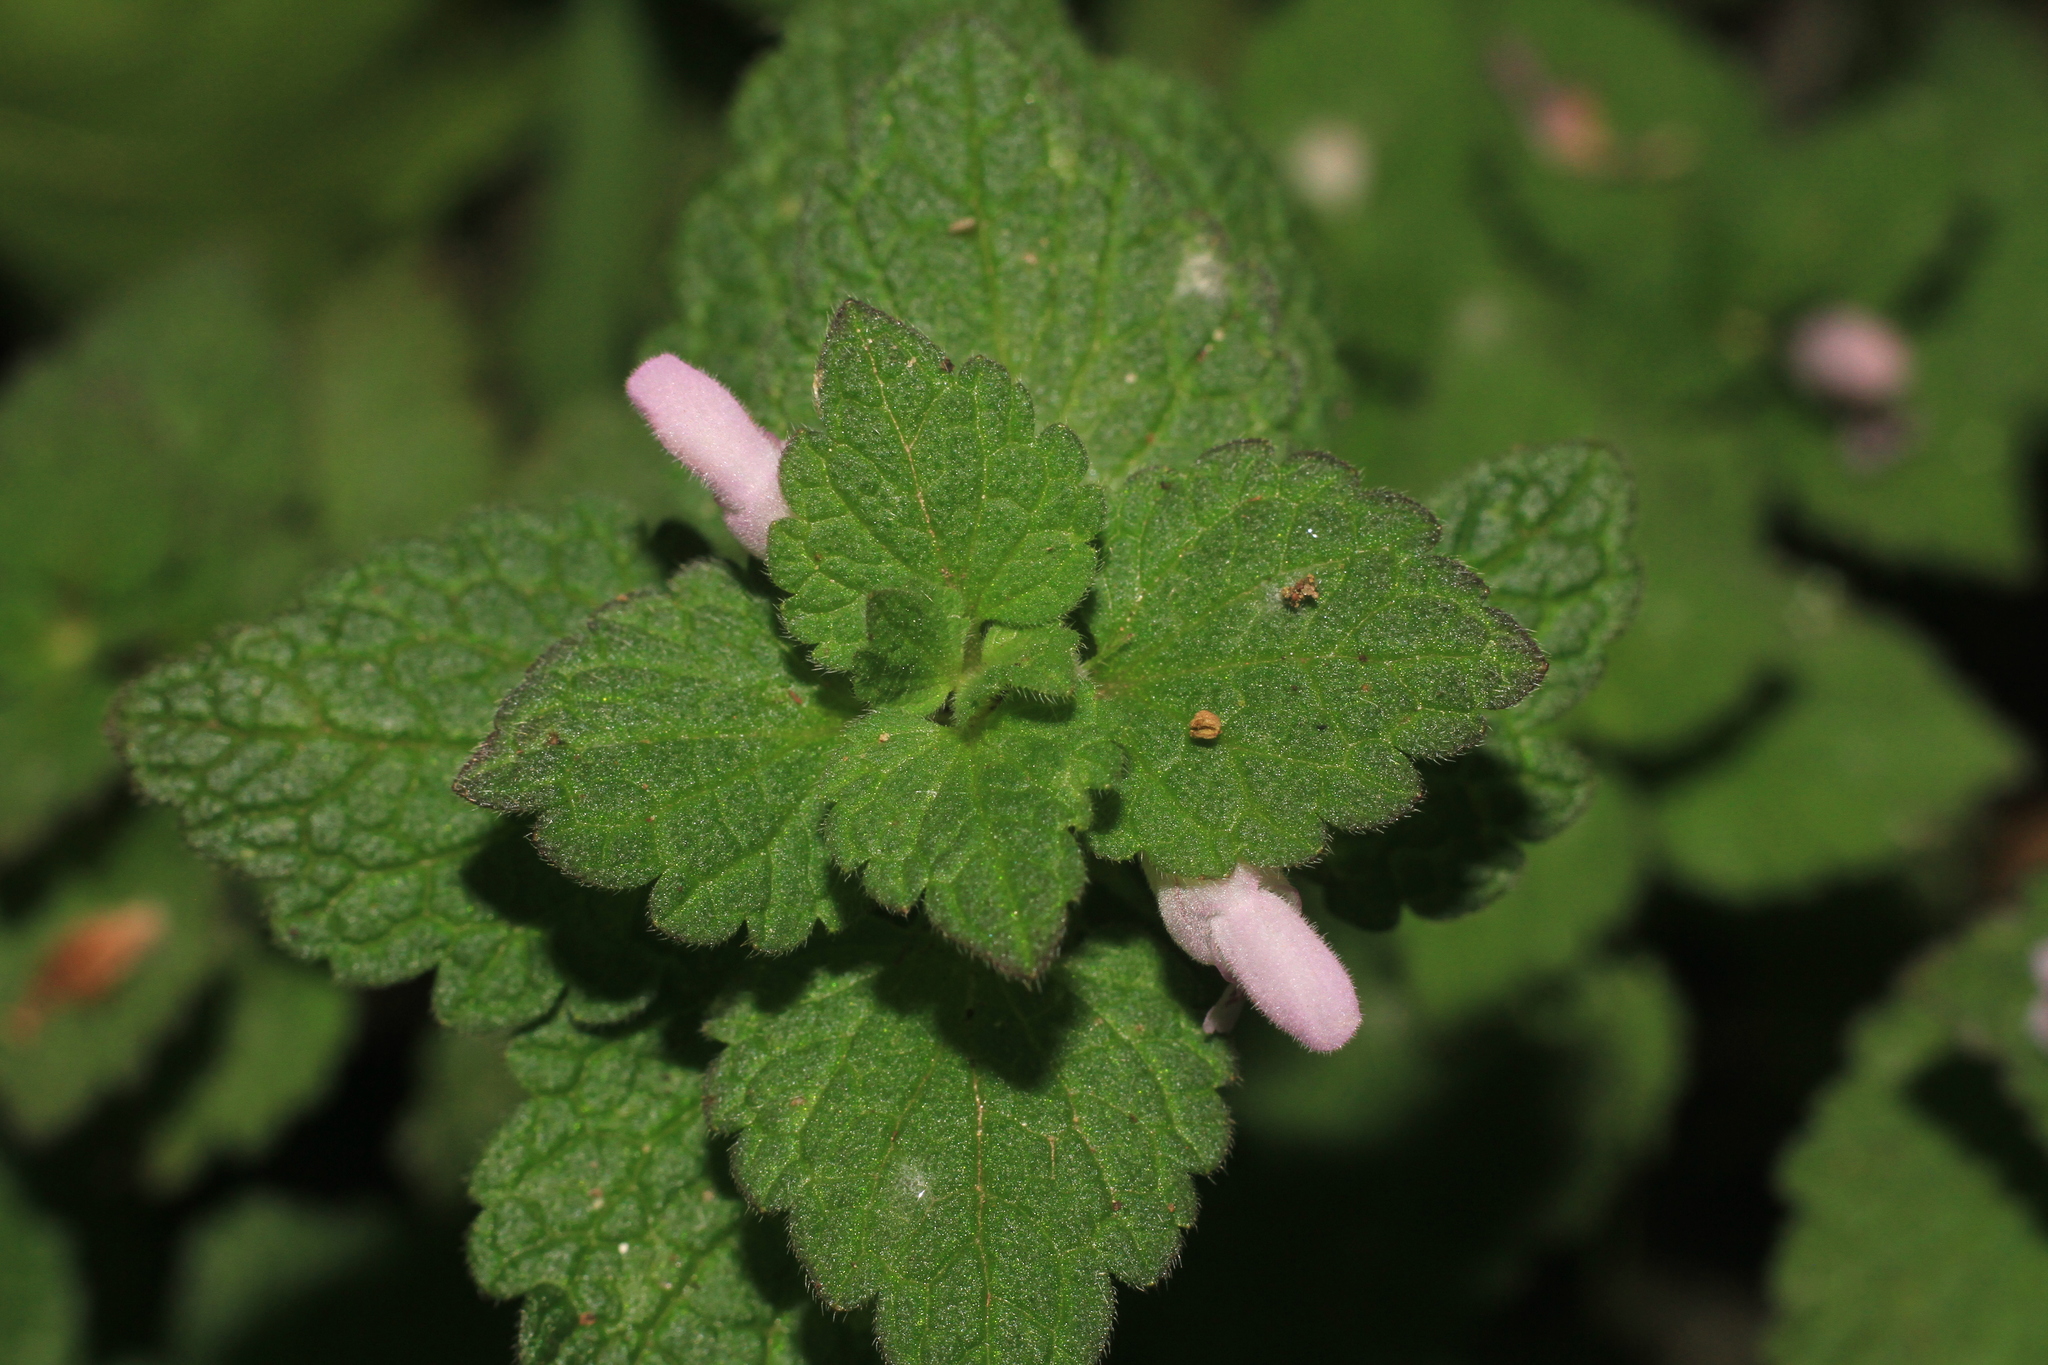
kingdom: Plantae
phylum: Tracheophyta
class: Magnoliopsida
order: Lamiales
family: Lamiaceae
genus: Lamium
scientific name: Lamium purpureum
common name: Red dead-nettle
